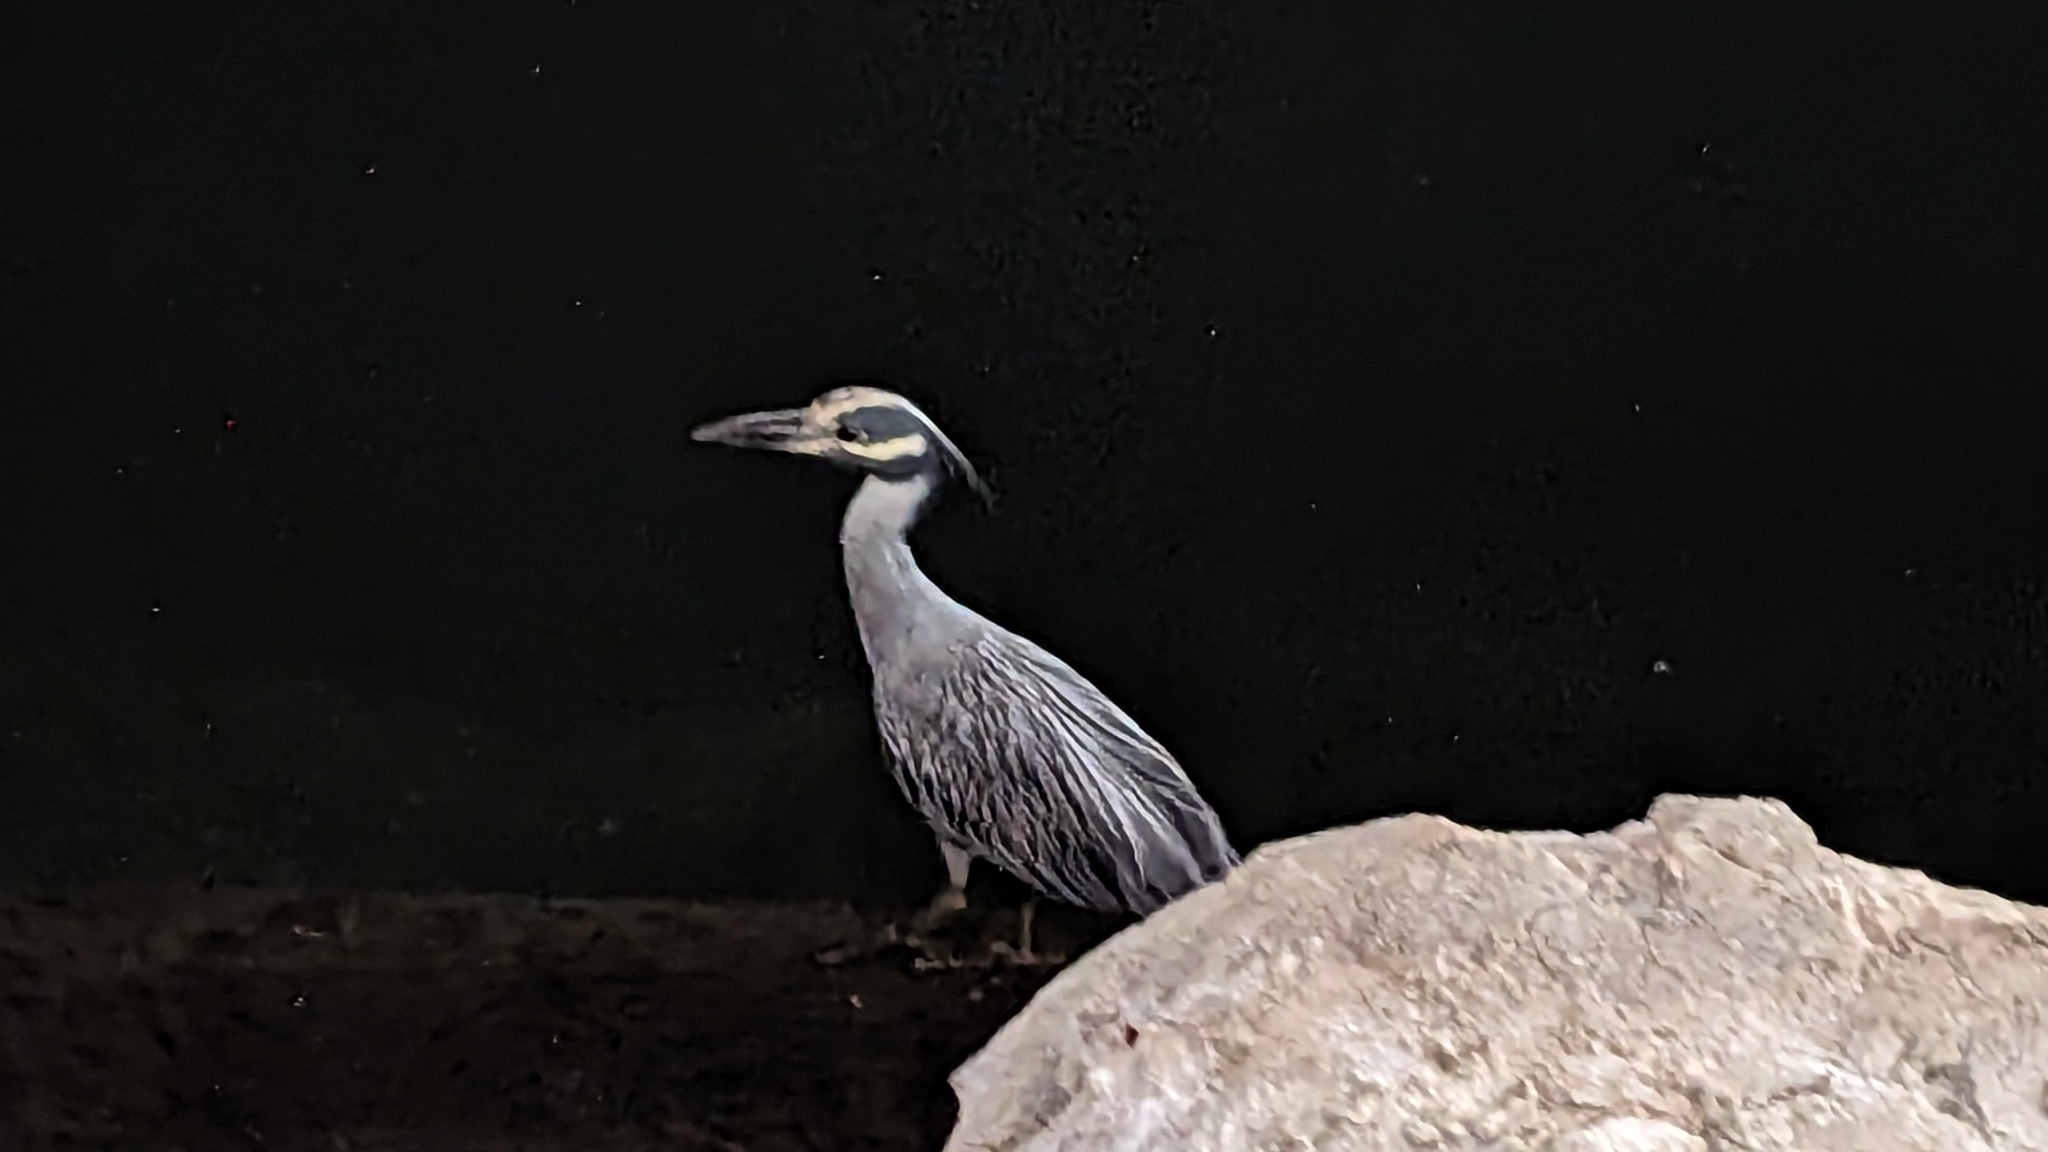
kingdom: Animalia
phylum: Chordata
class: Aves
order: Pelecaniformes
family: Ardeidae
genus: Nyctanassa
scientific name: Nyctanassa violacea
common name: Yellow-crowned night heron
